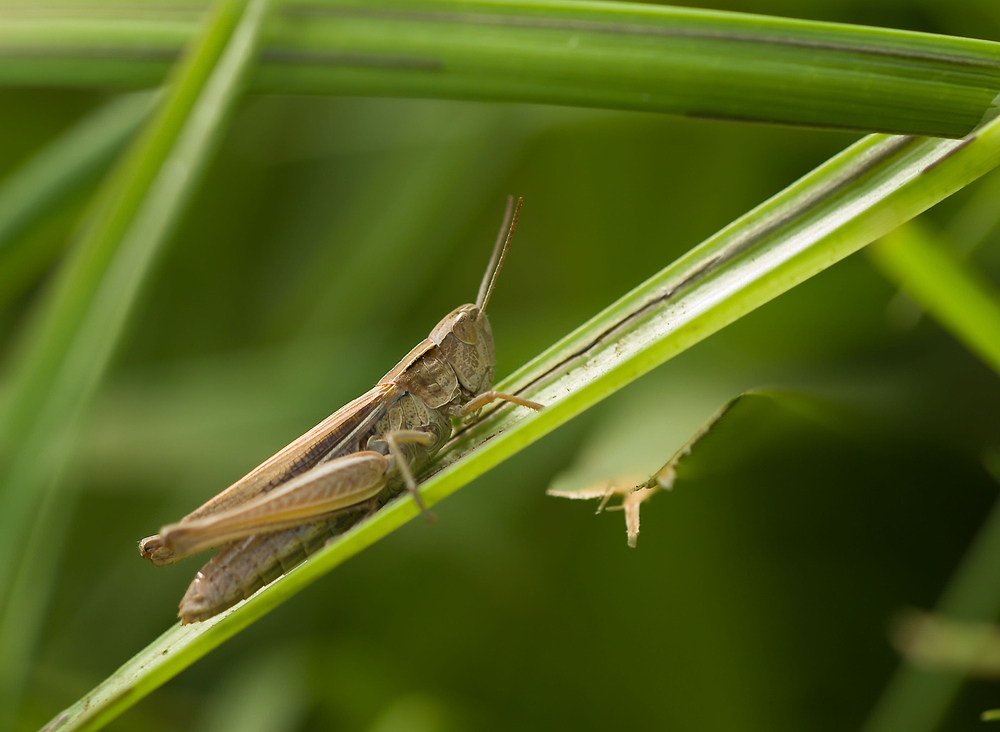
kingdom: Animalia
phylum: Arthropoda
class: Insecta
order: Orthoptera
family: Acrididae
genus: Chorthippus
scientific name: Chorthippus albomarginatus
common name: Lesser marsh grasshopper
